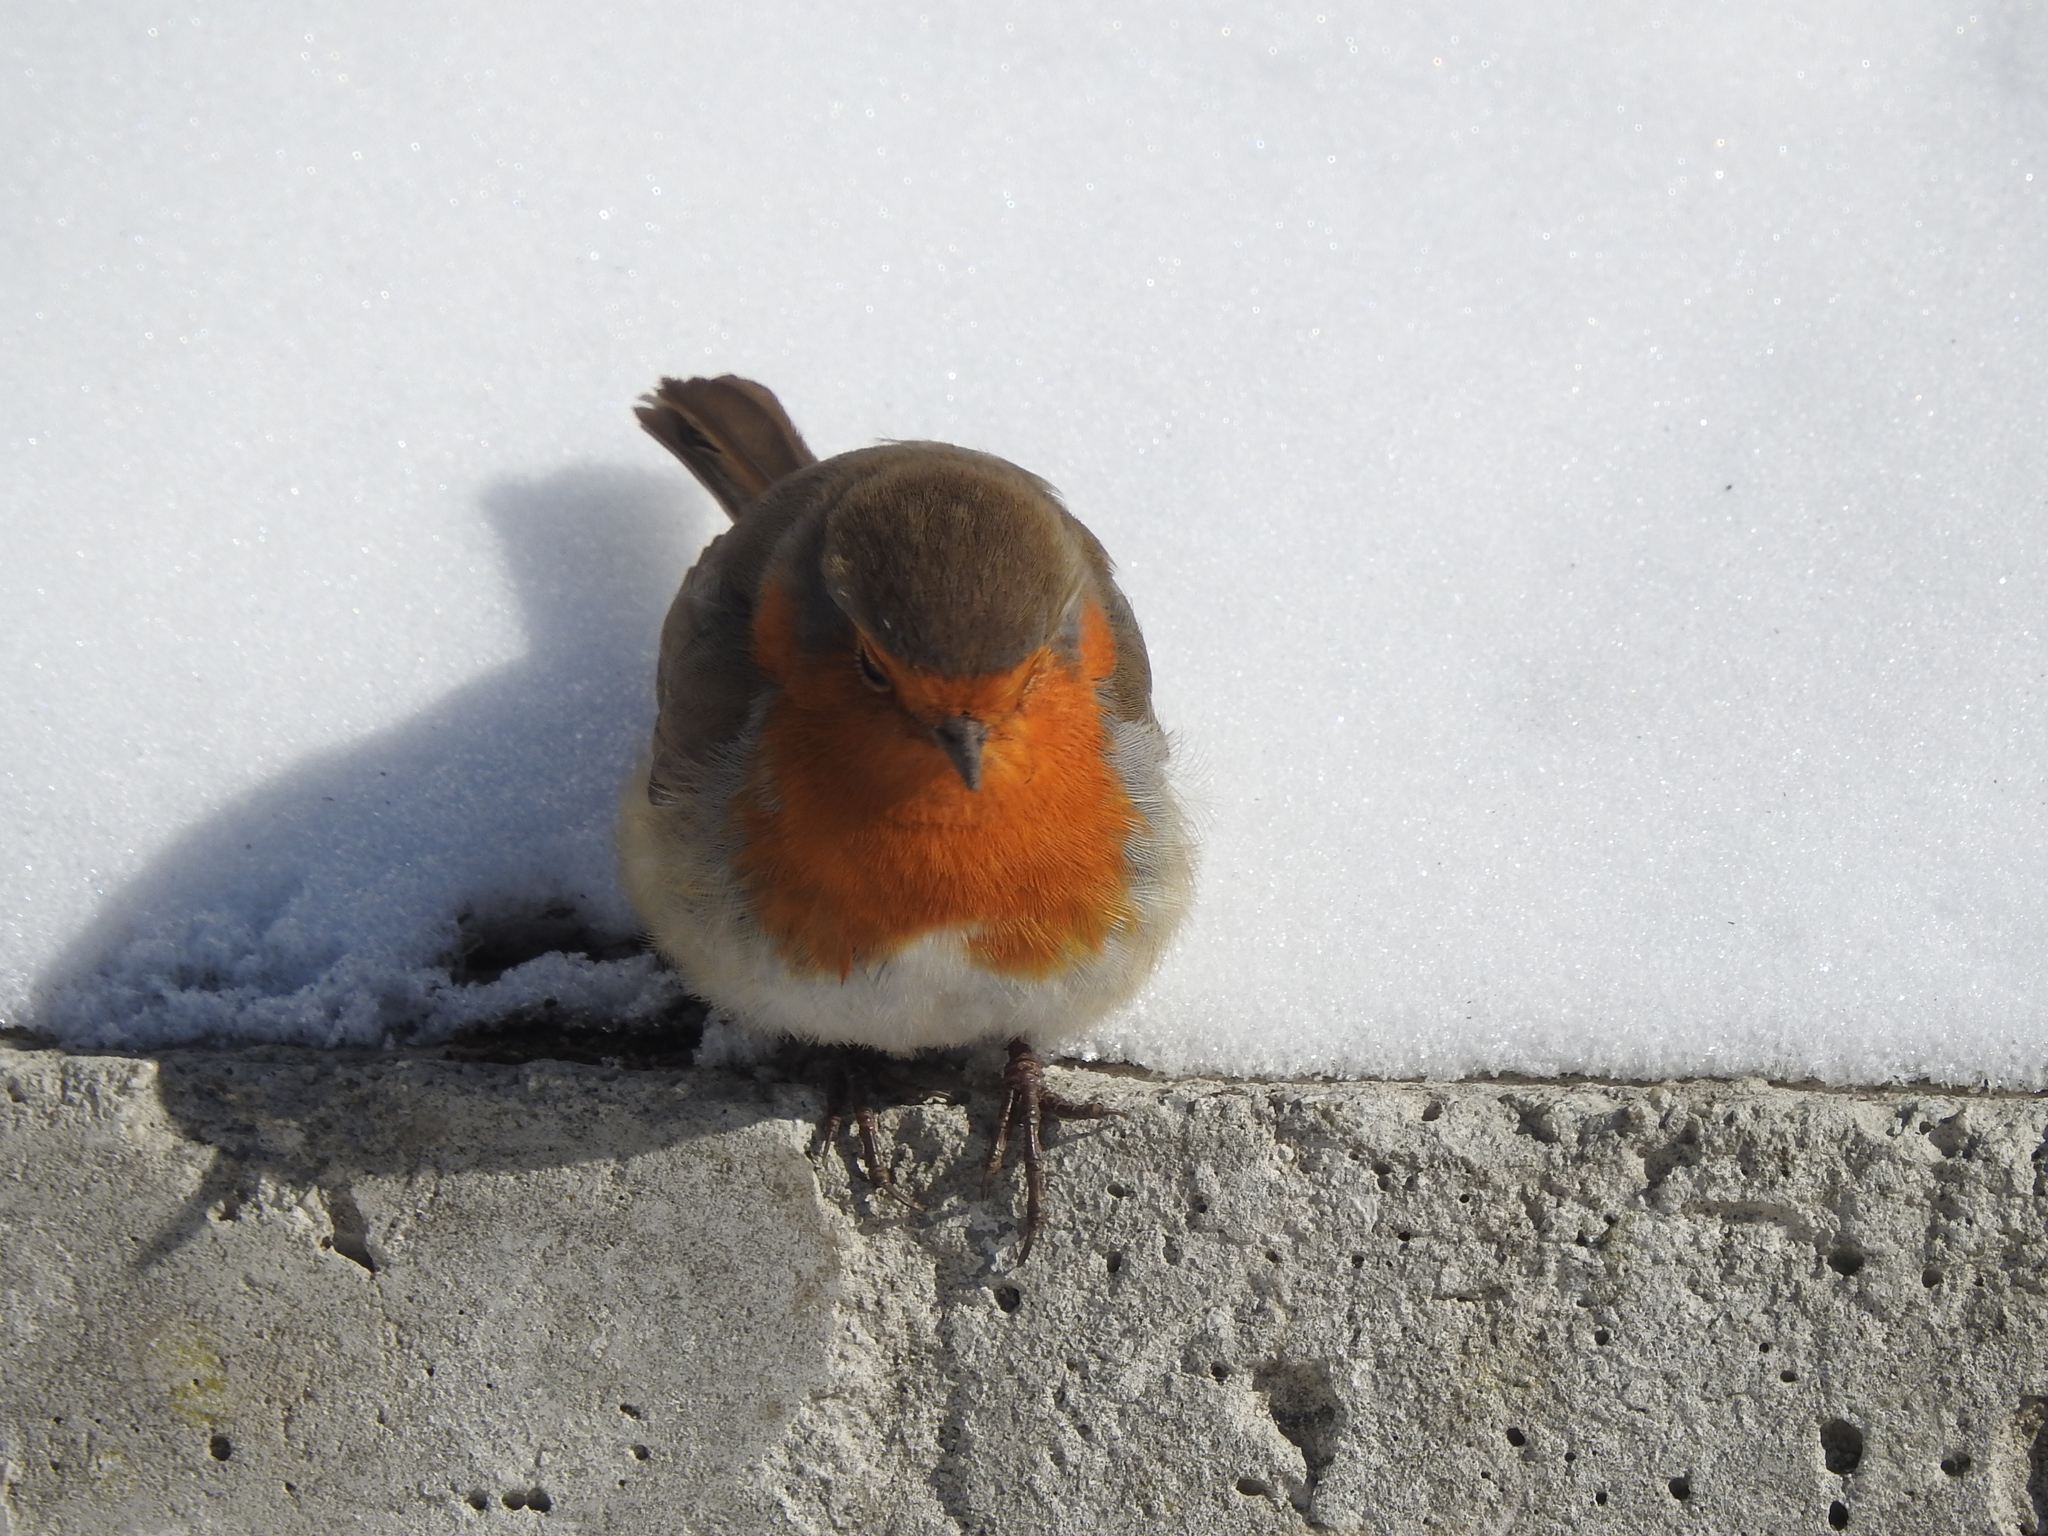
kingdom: Animalia
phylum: Chordata
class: Aves
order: Passeriformes
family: Muscicapidae
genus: Erithacus
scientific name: Erithacus rubecula
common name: European robin
